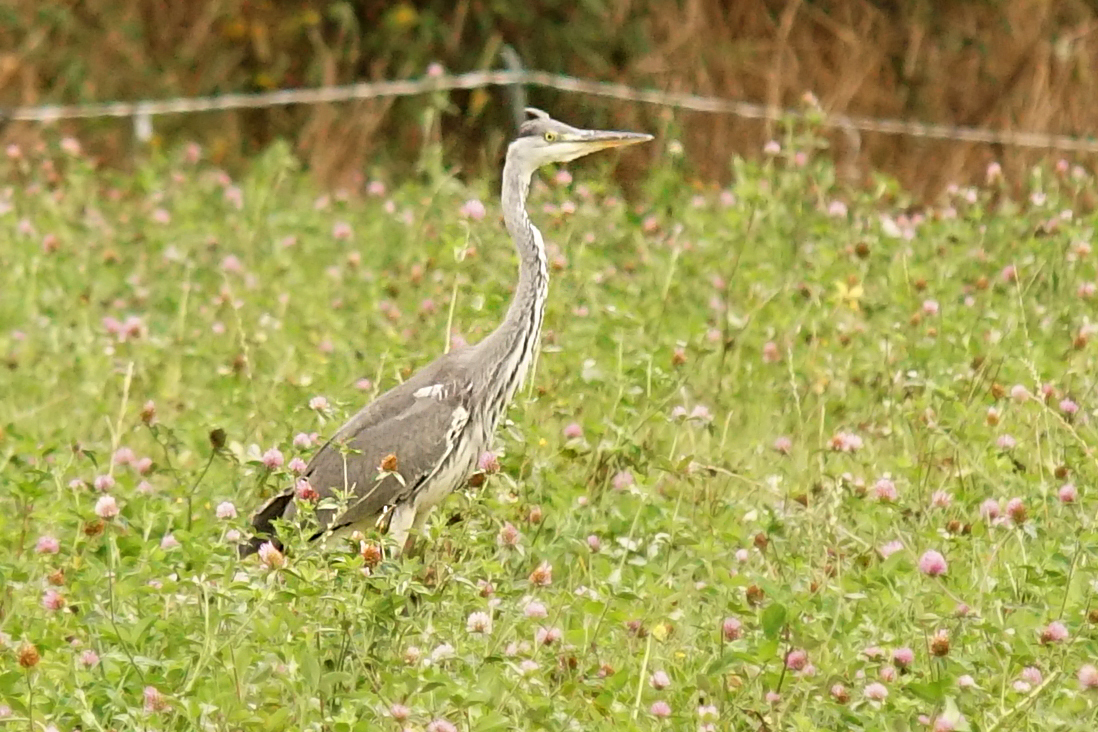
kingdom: Animalia
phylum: Chordata
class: Aves
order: Pelecaniformes
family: Ardeidae
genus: Ardea
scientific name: Ardea cinerea
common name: Grey heron
